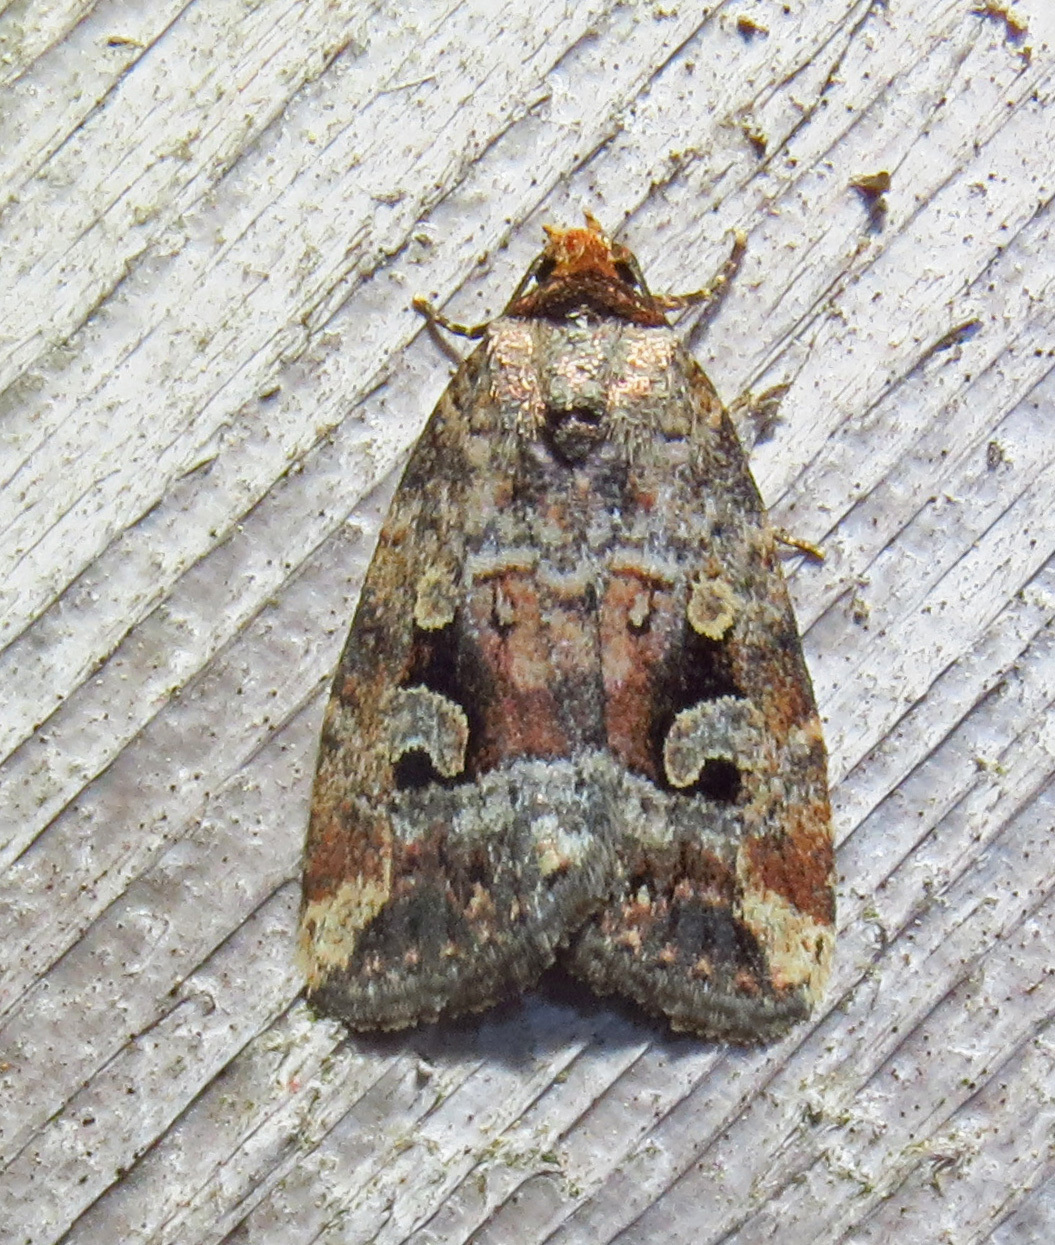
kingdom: Animalia
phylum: Arthropoda
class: Insecta
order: Lepidoptera
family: Noctuidae
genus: Elaphria
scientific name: Elaphria alapallida
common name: Pale-winged midget
